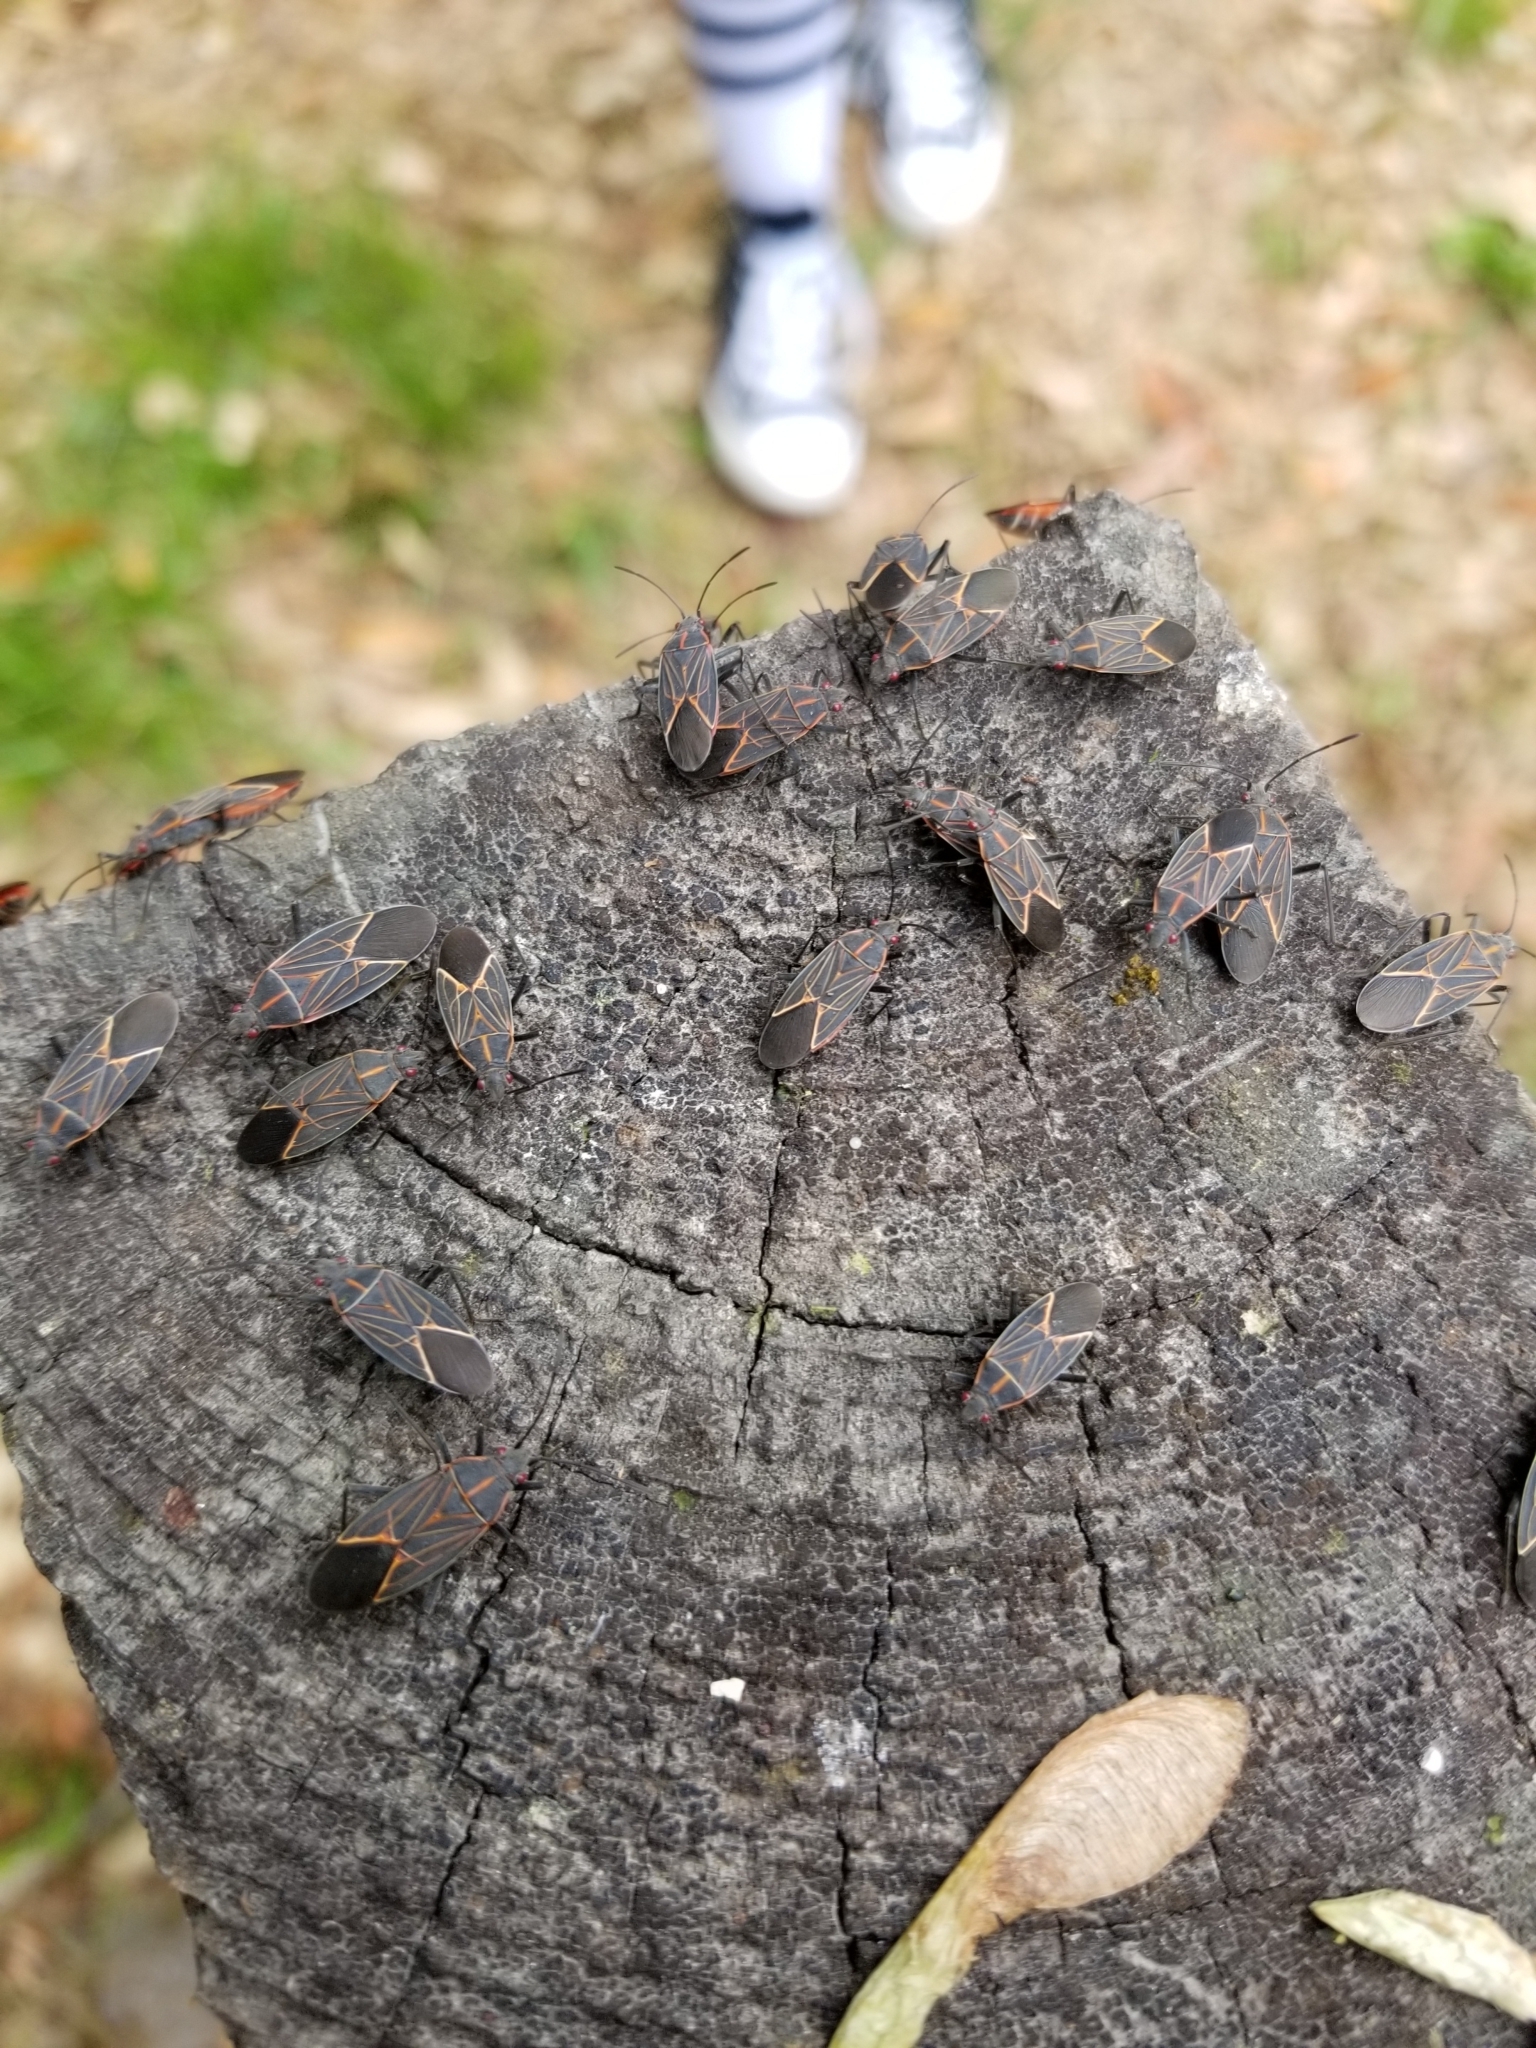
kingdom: Animalia
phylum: Arthropoda
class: Insecta
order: Hemiptera
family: Rhopalidae
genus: Boisea
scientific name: Boisea rubrolineata
